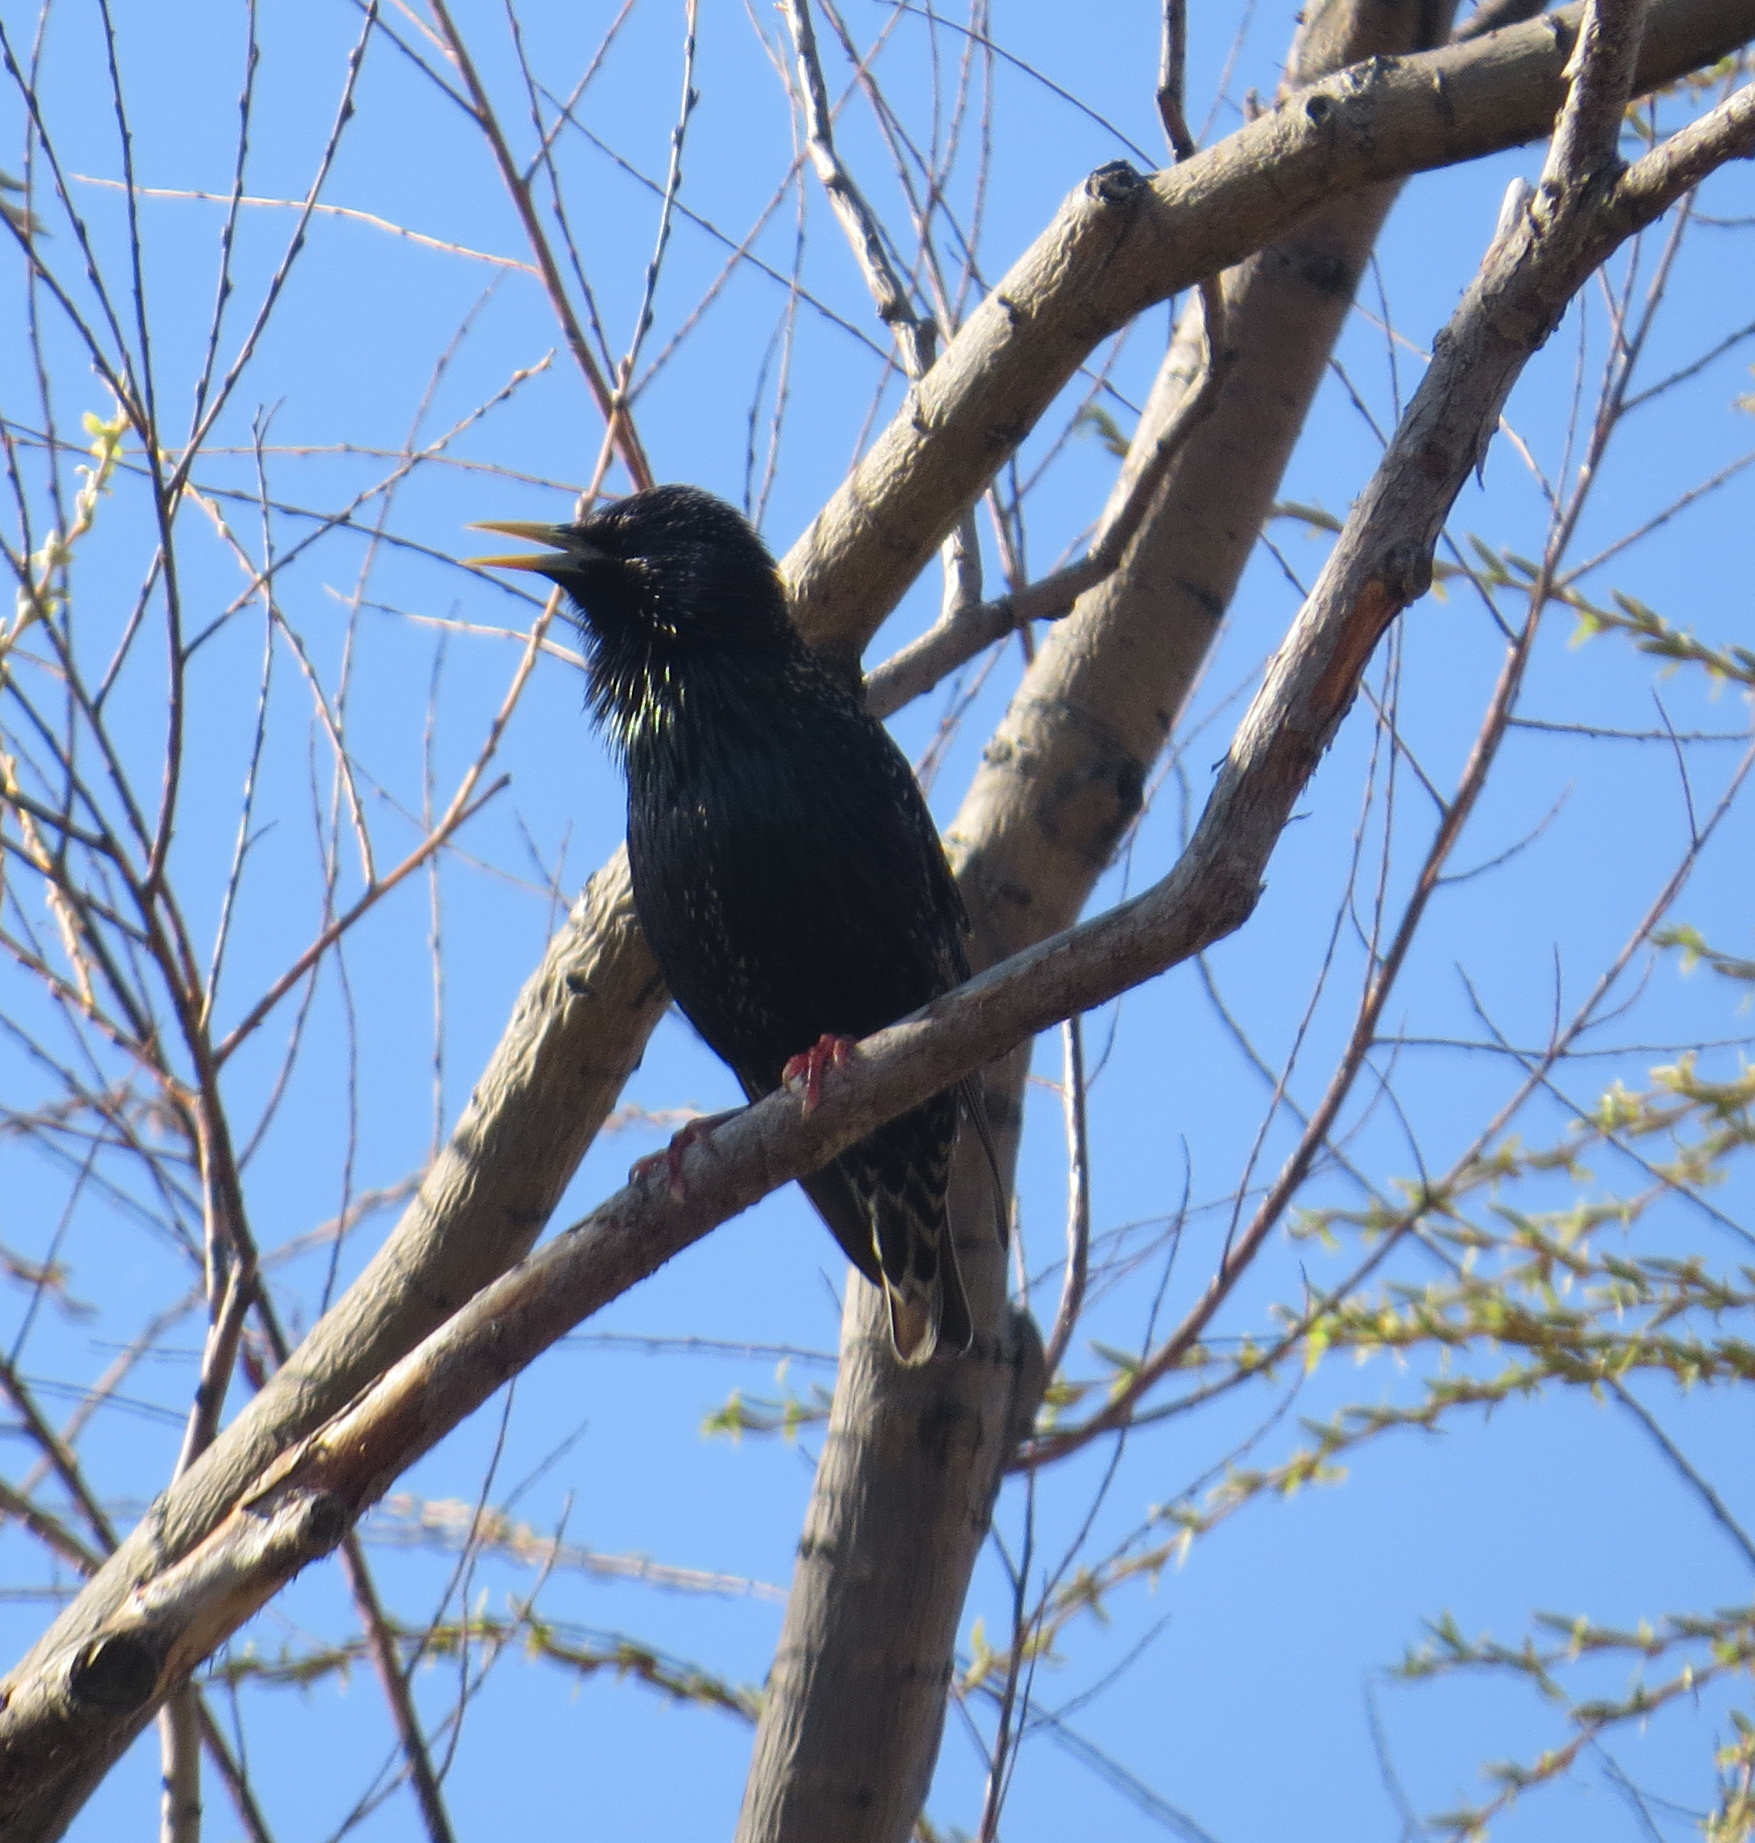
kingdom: Animalia
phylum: Chordata
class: Aves
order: Passeriformes
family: Sturnidae
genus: Sturnus
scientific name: Sturnus vulgaris
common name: Common starling
